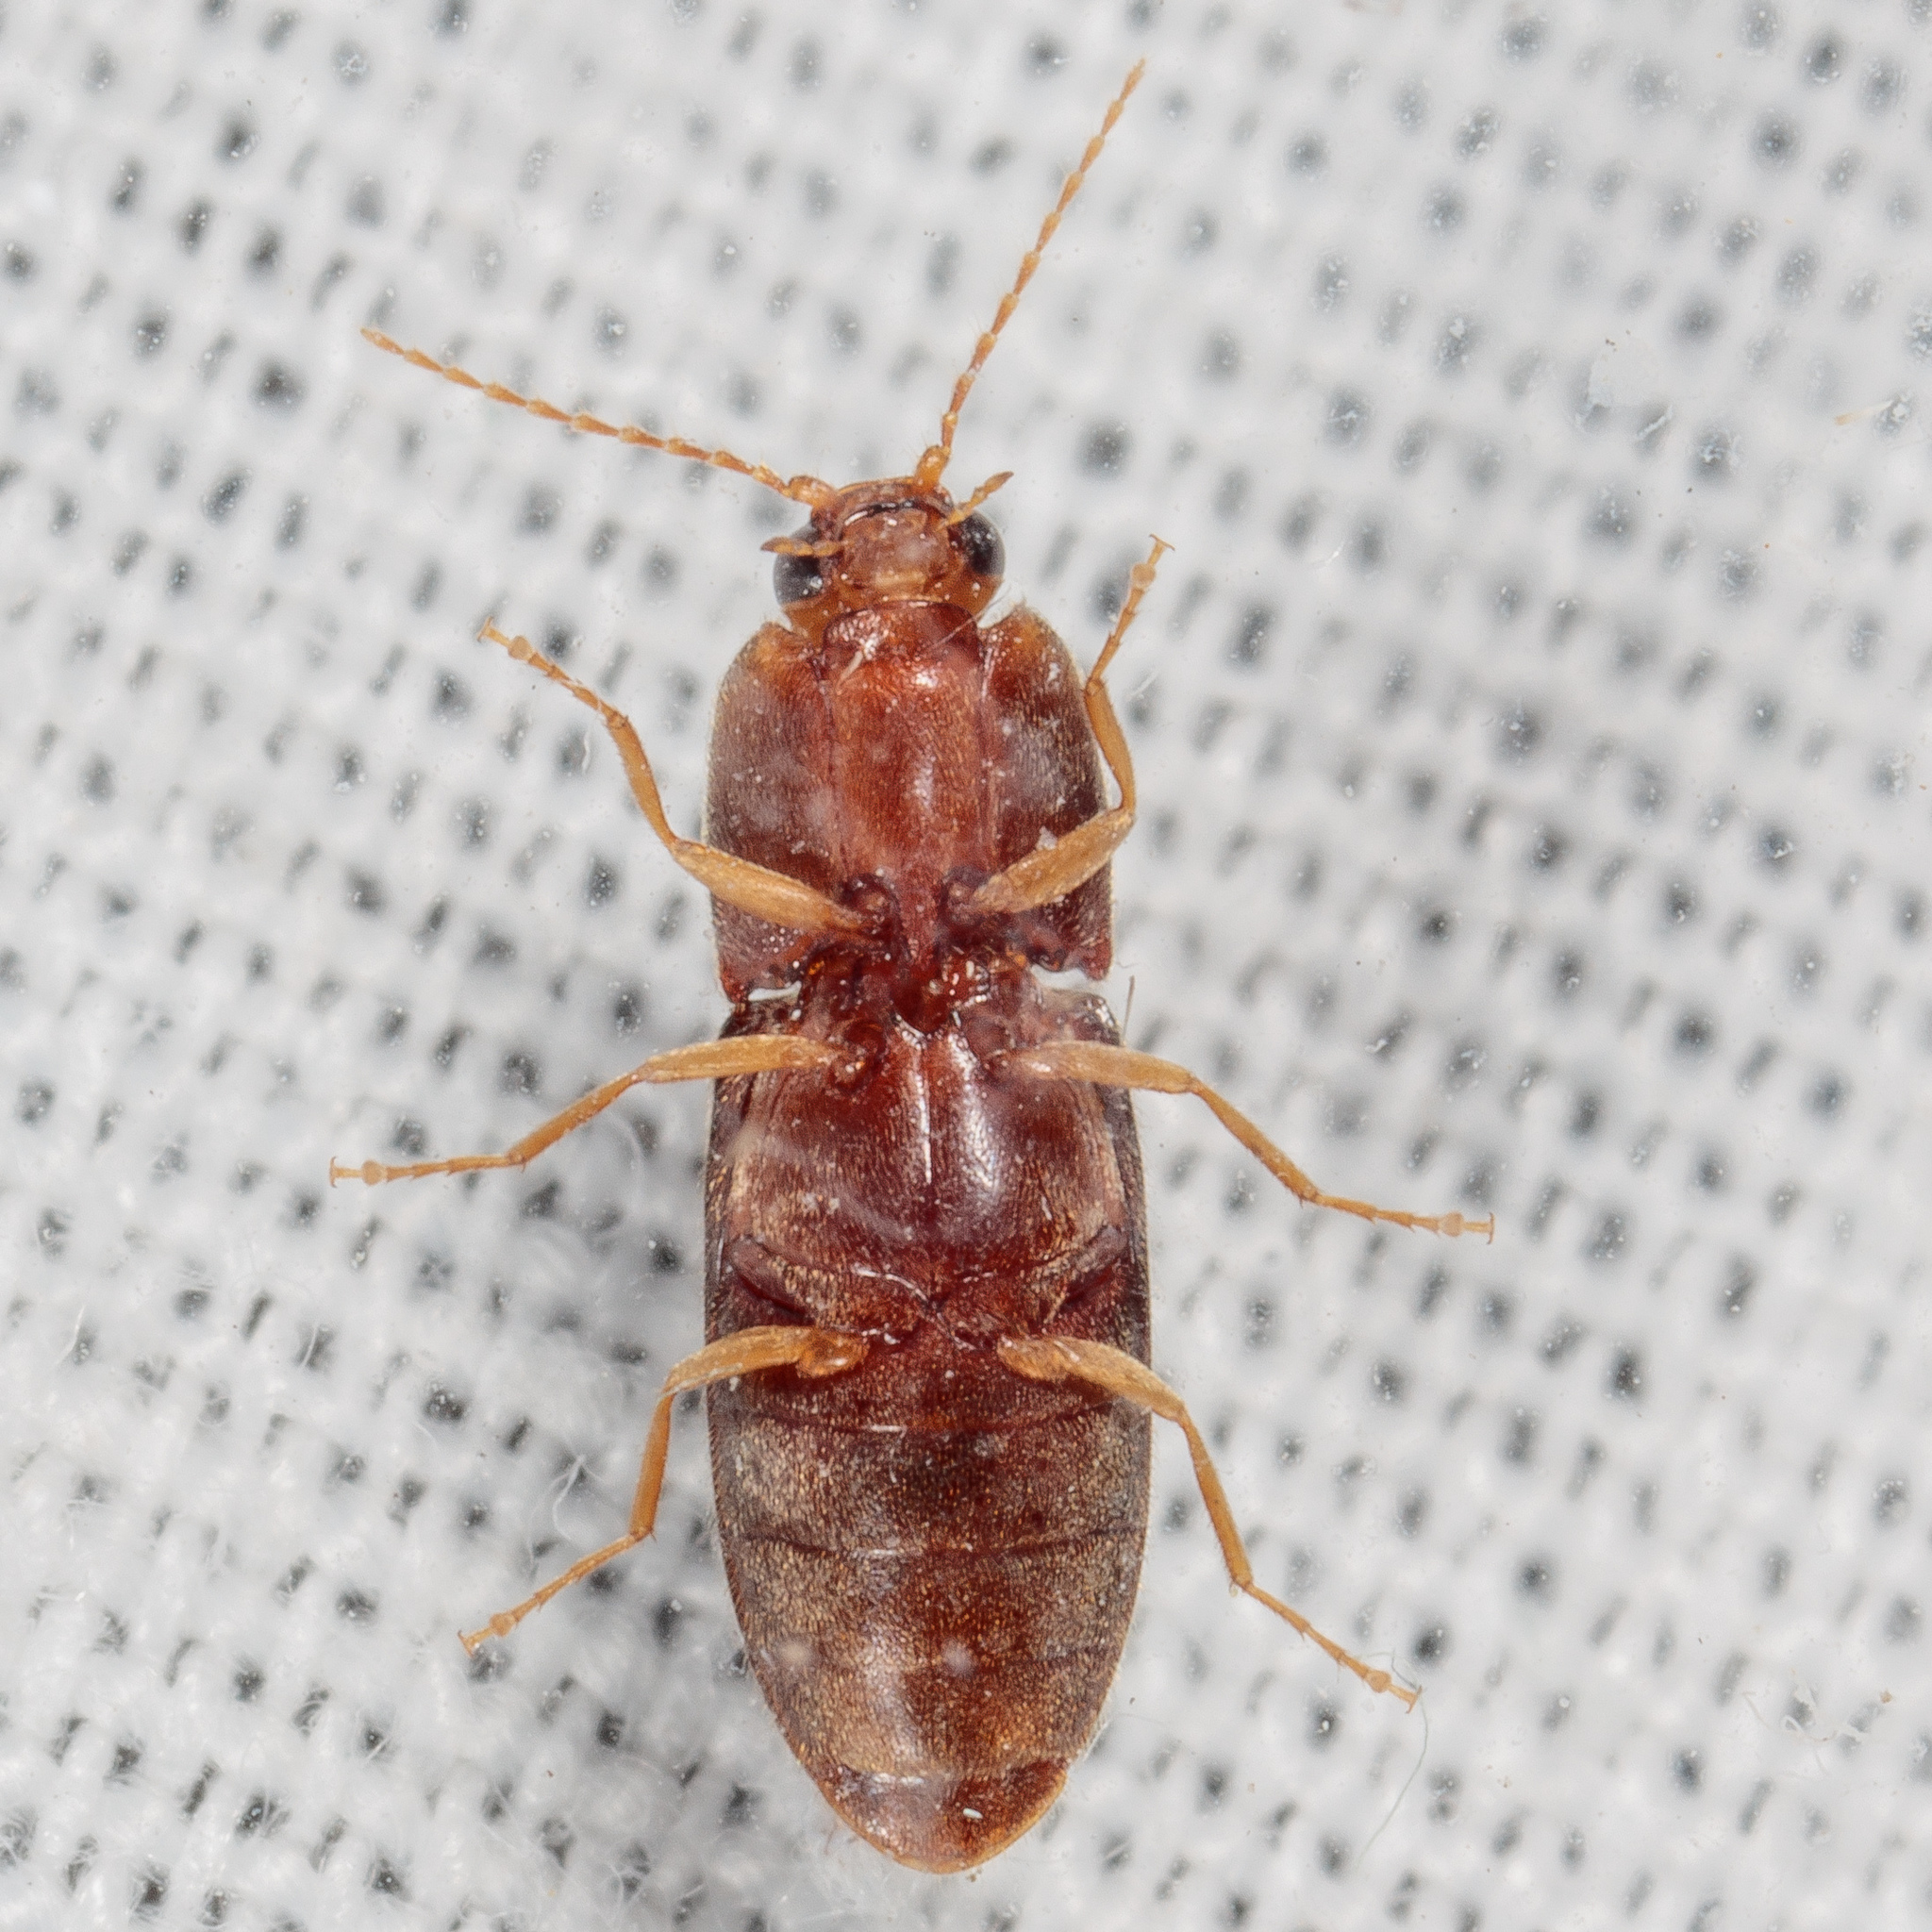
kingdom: Animalia
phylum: Arthropoda
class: Insecta
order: Coleoptera
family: Elateridae
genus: Esthesopus
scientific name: Esthesopus
